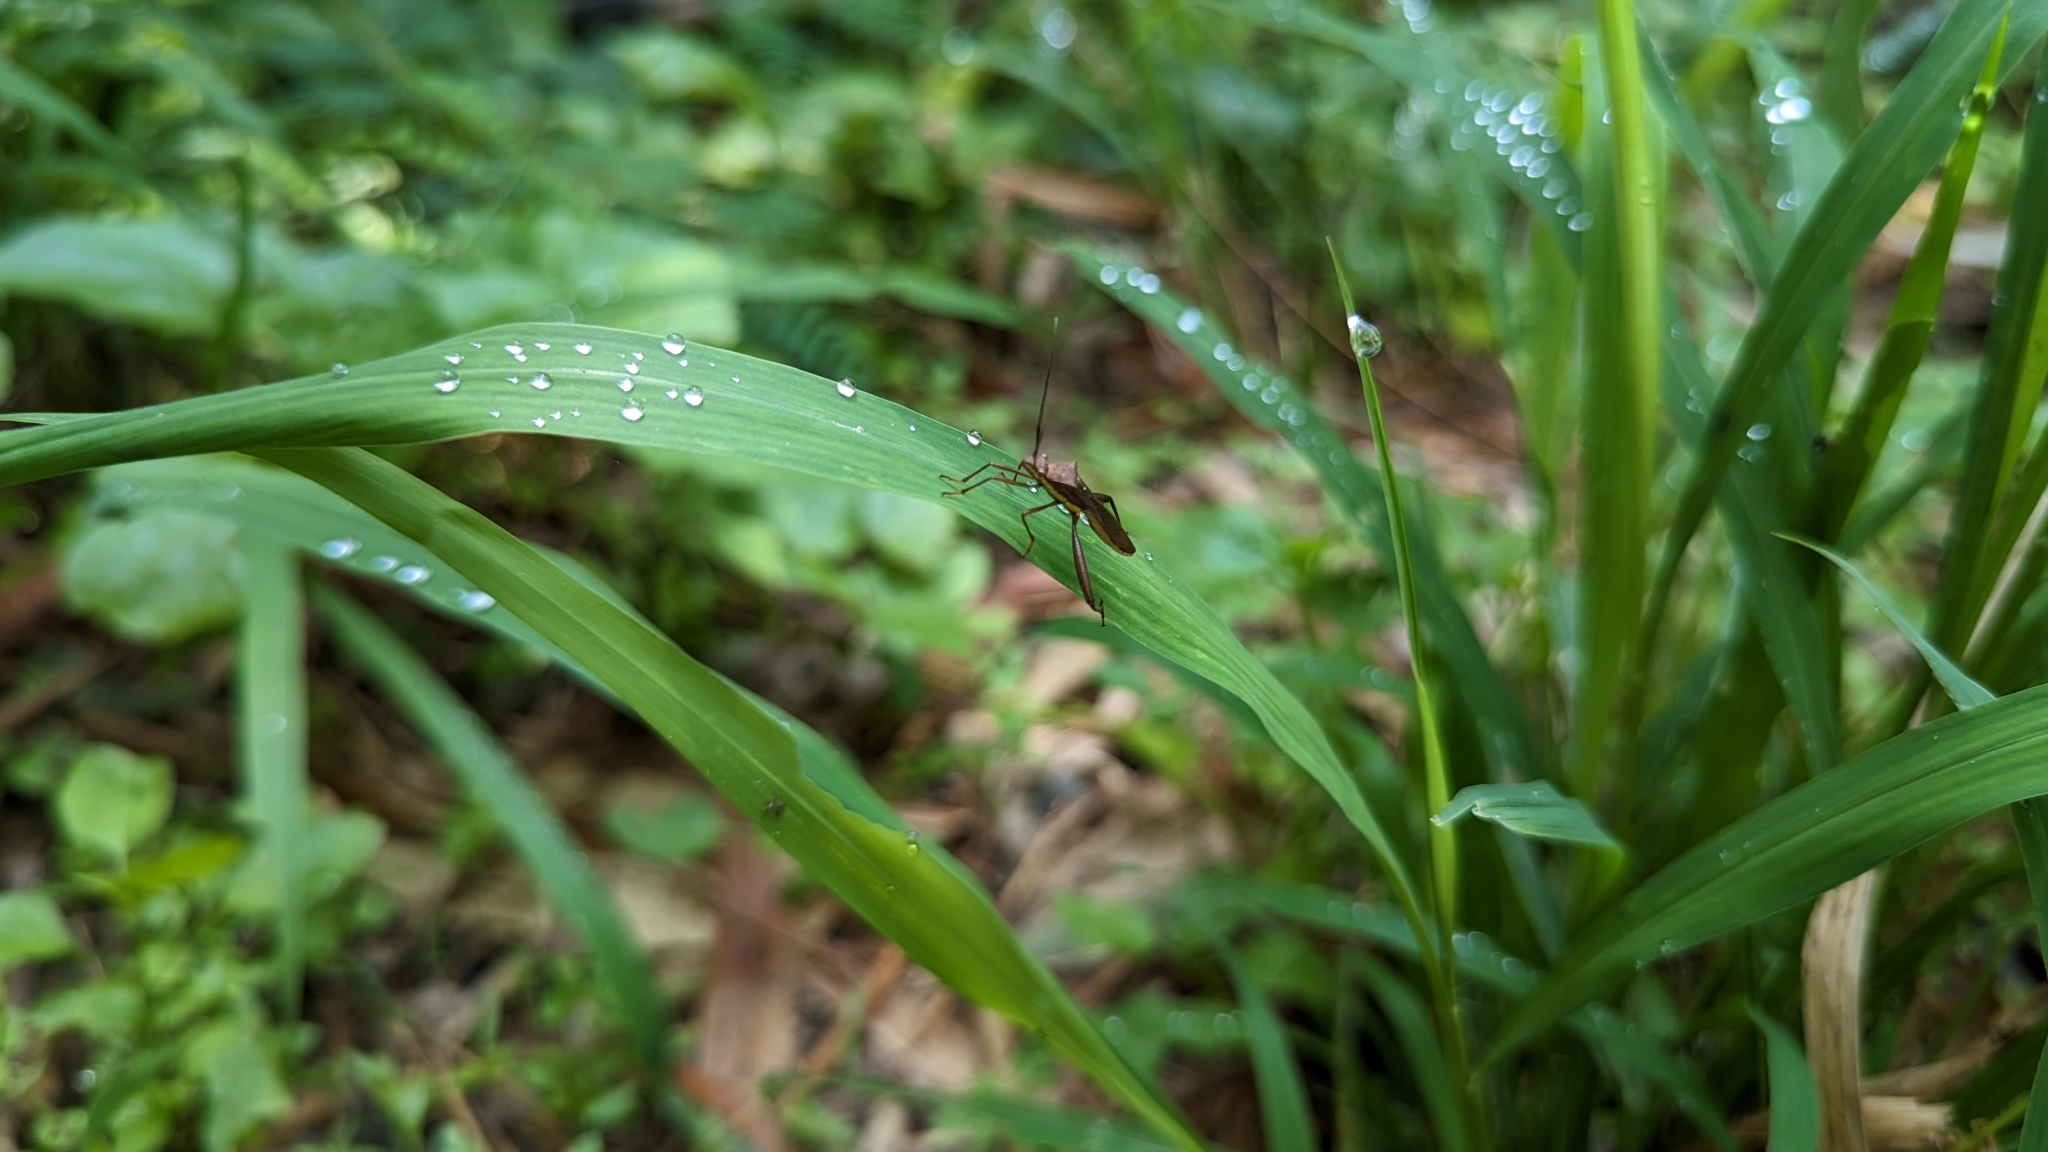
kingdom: Animalia
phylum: Arthropoda
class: Insecta
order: Hemiptera
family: Alydidae
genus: Riptortus
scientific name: Riptortus linearis
